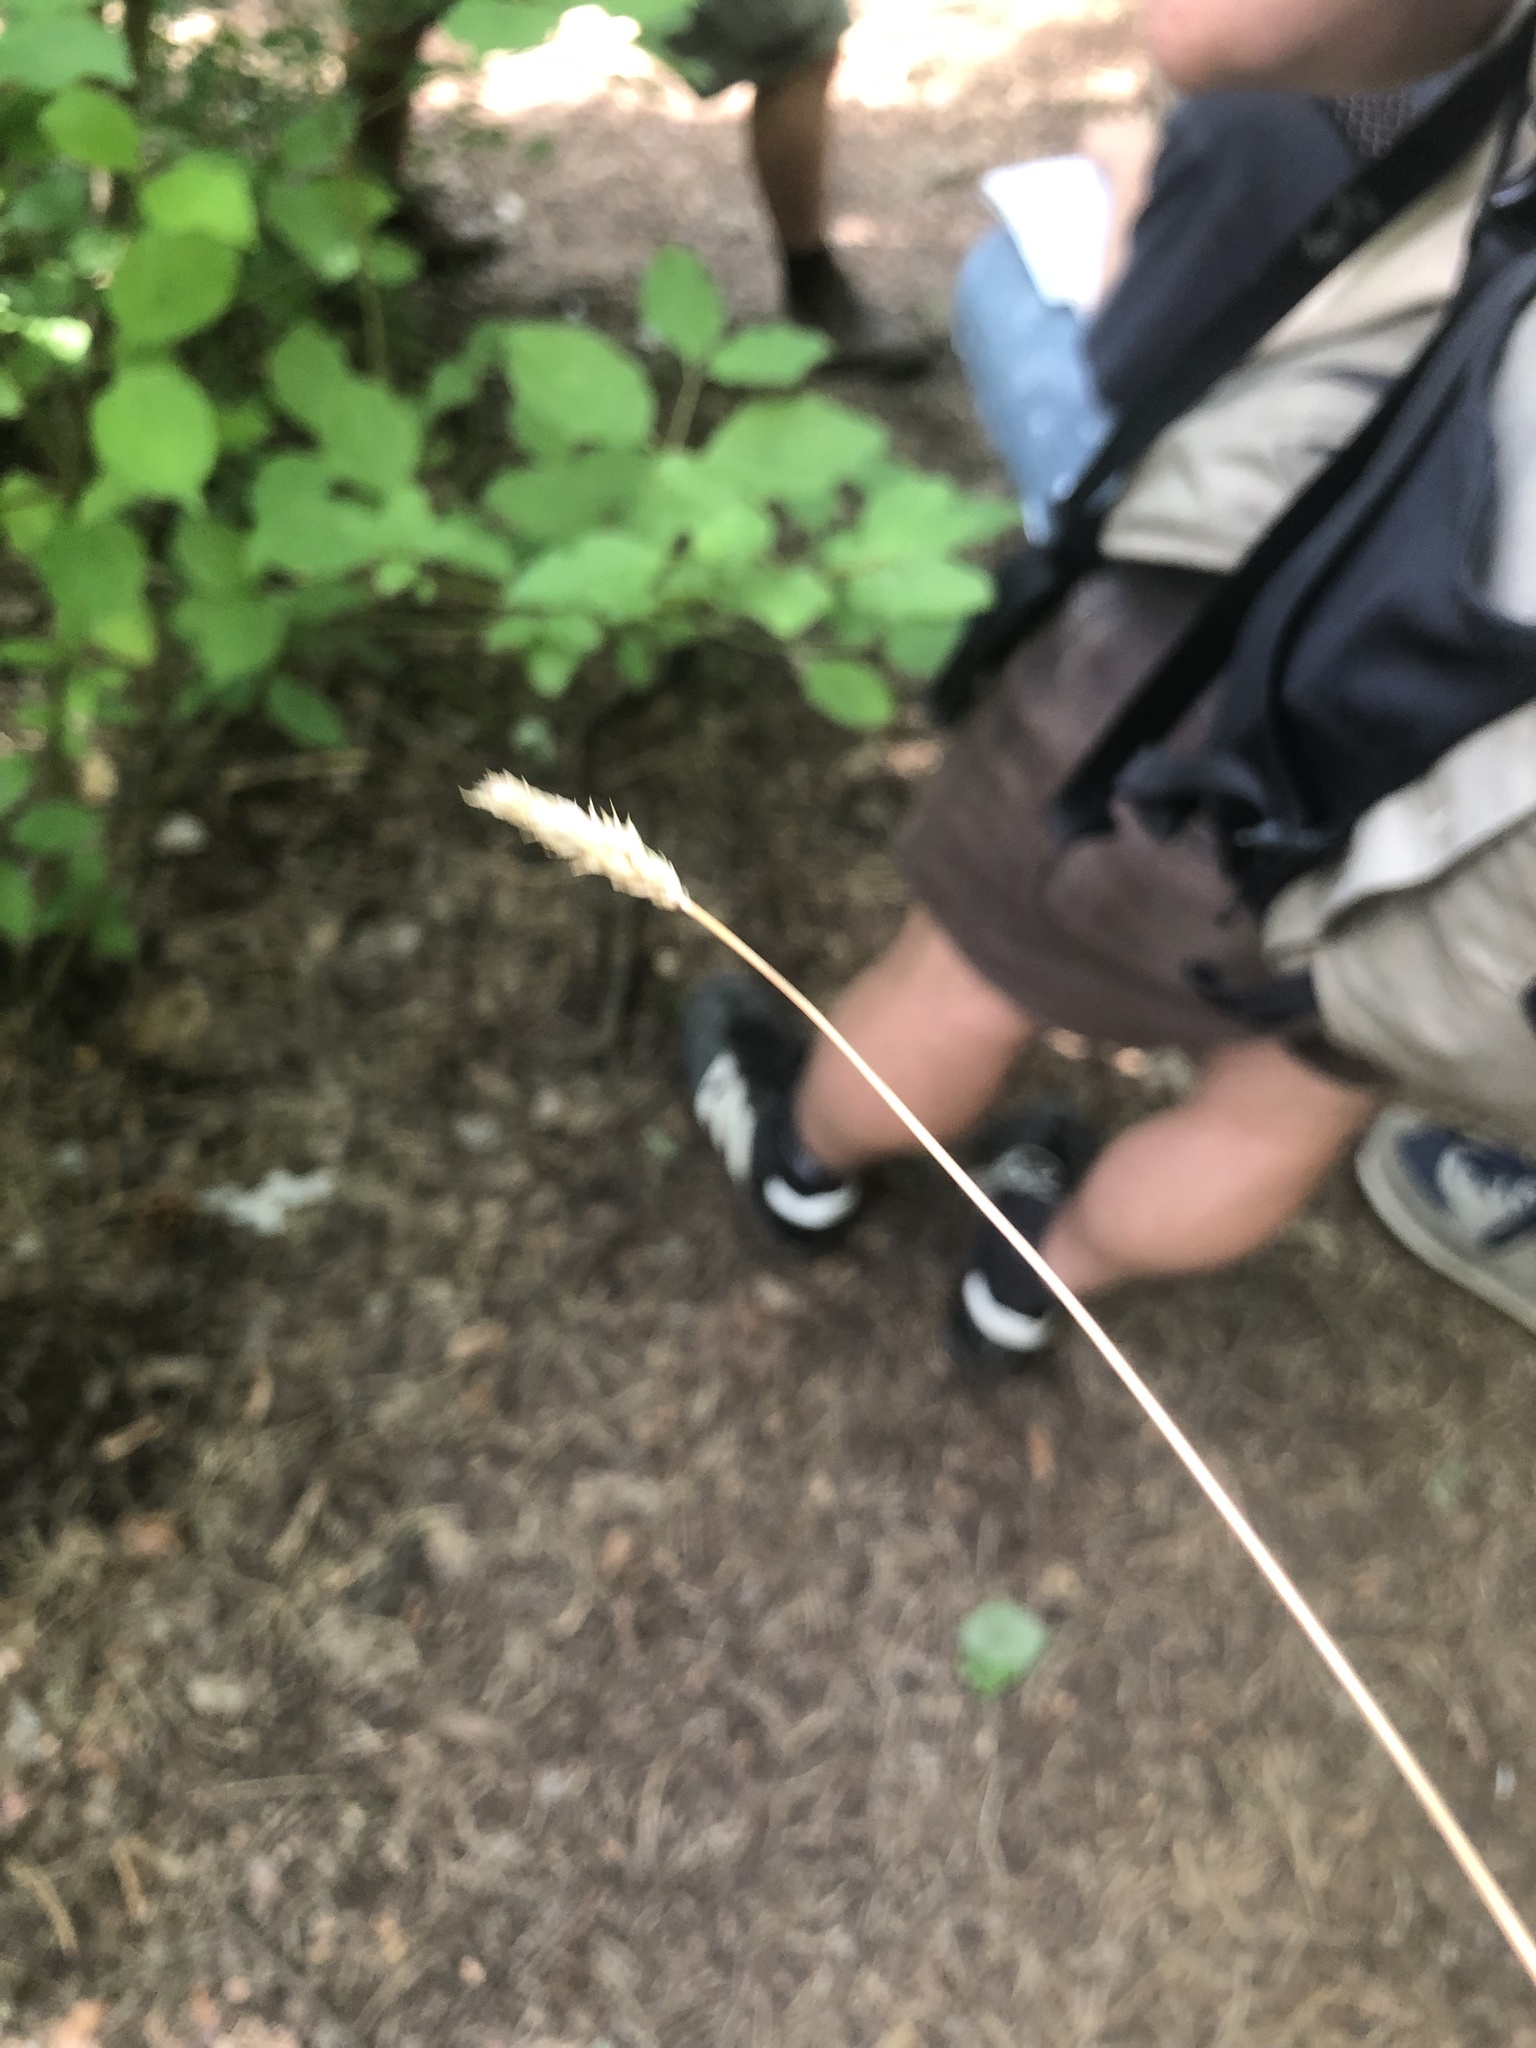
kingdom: Plantae
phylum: Tracheophyta
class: Liliopsida
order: Poales
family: Poaceae
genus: Sesleria
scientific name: Sesleria caerulea
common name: Blue moor-grass
